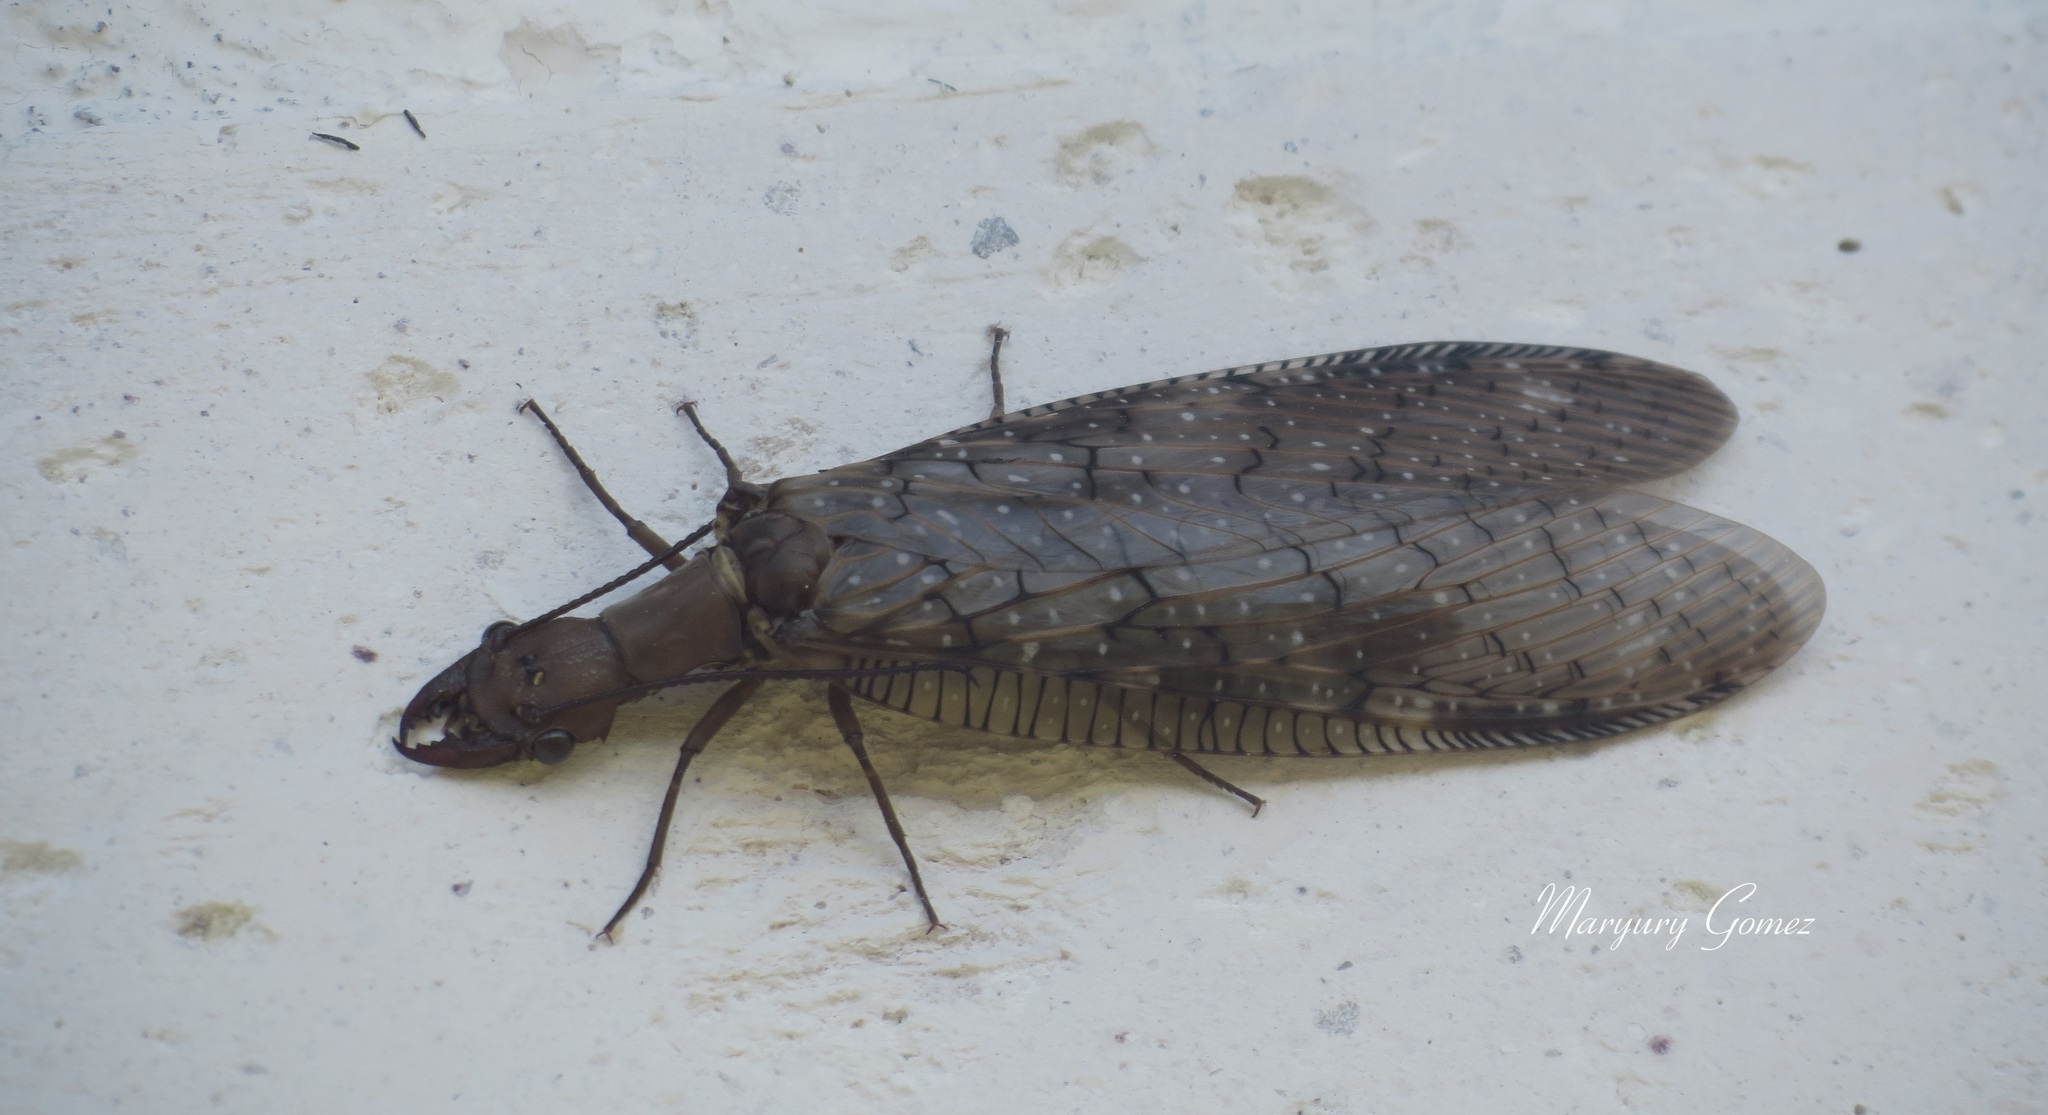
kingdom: Animalia
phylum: Arthropoda
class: Insecta
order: Megaloptera
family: Corydalidae
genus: Corydalus
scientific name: Corydalus luteus
